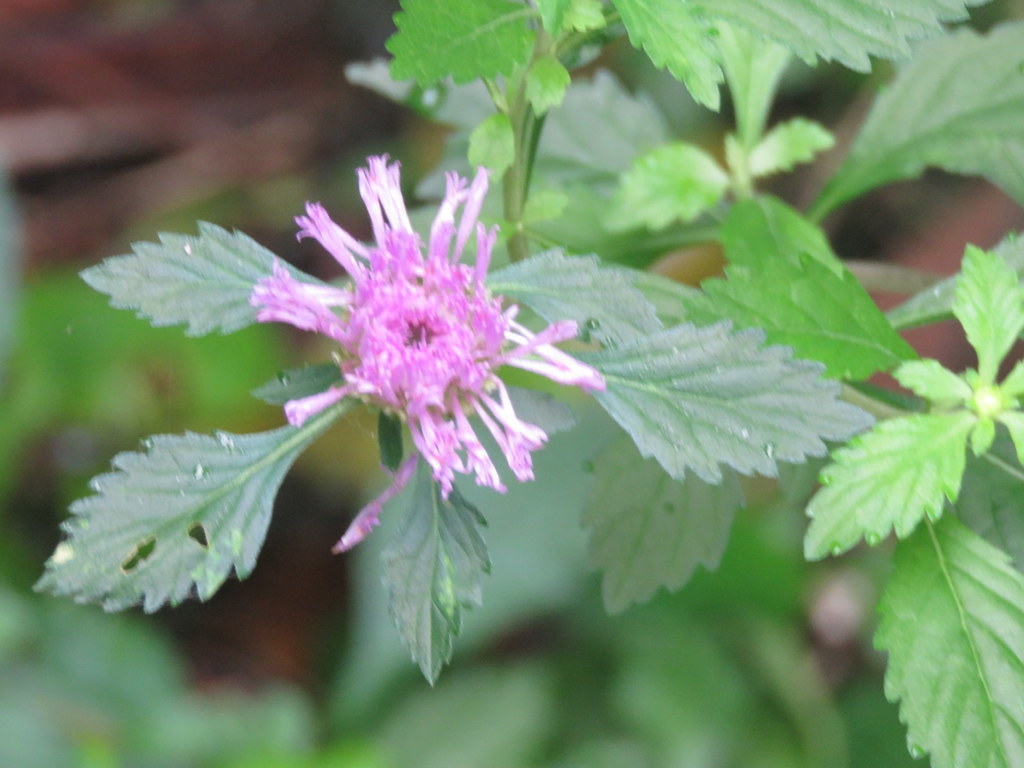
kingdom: Plantae
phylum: Tracheophyta
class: Magnoliopsida
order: Asterales
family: Asteraceae
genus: Centratherum
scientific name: Centratherum punctatum
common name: Larkdaisy
